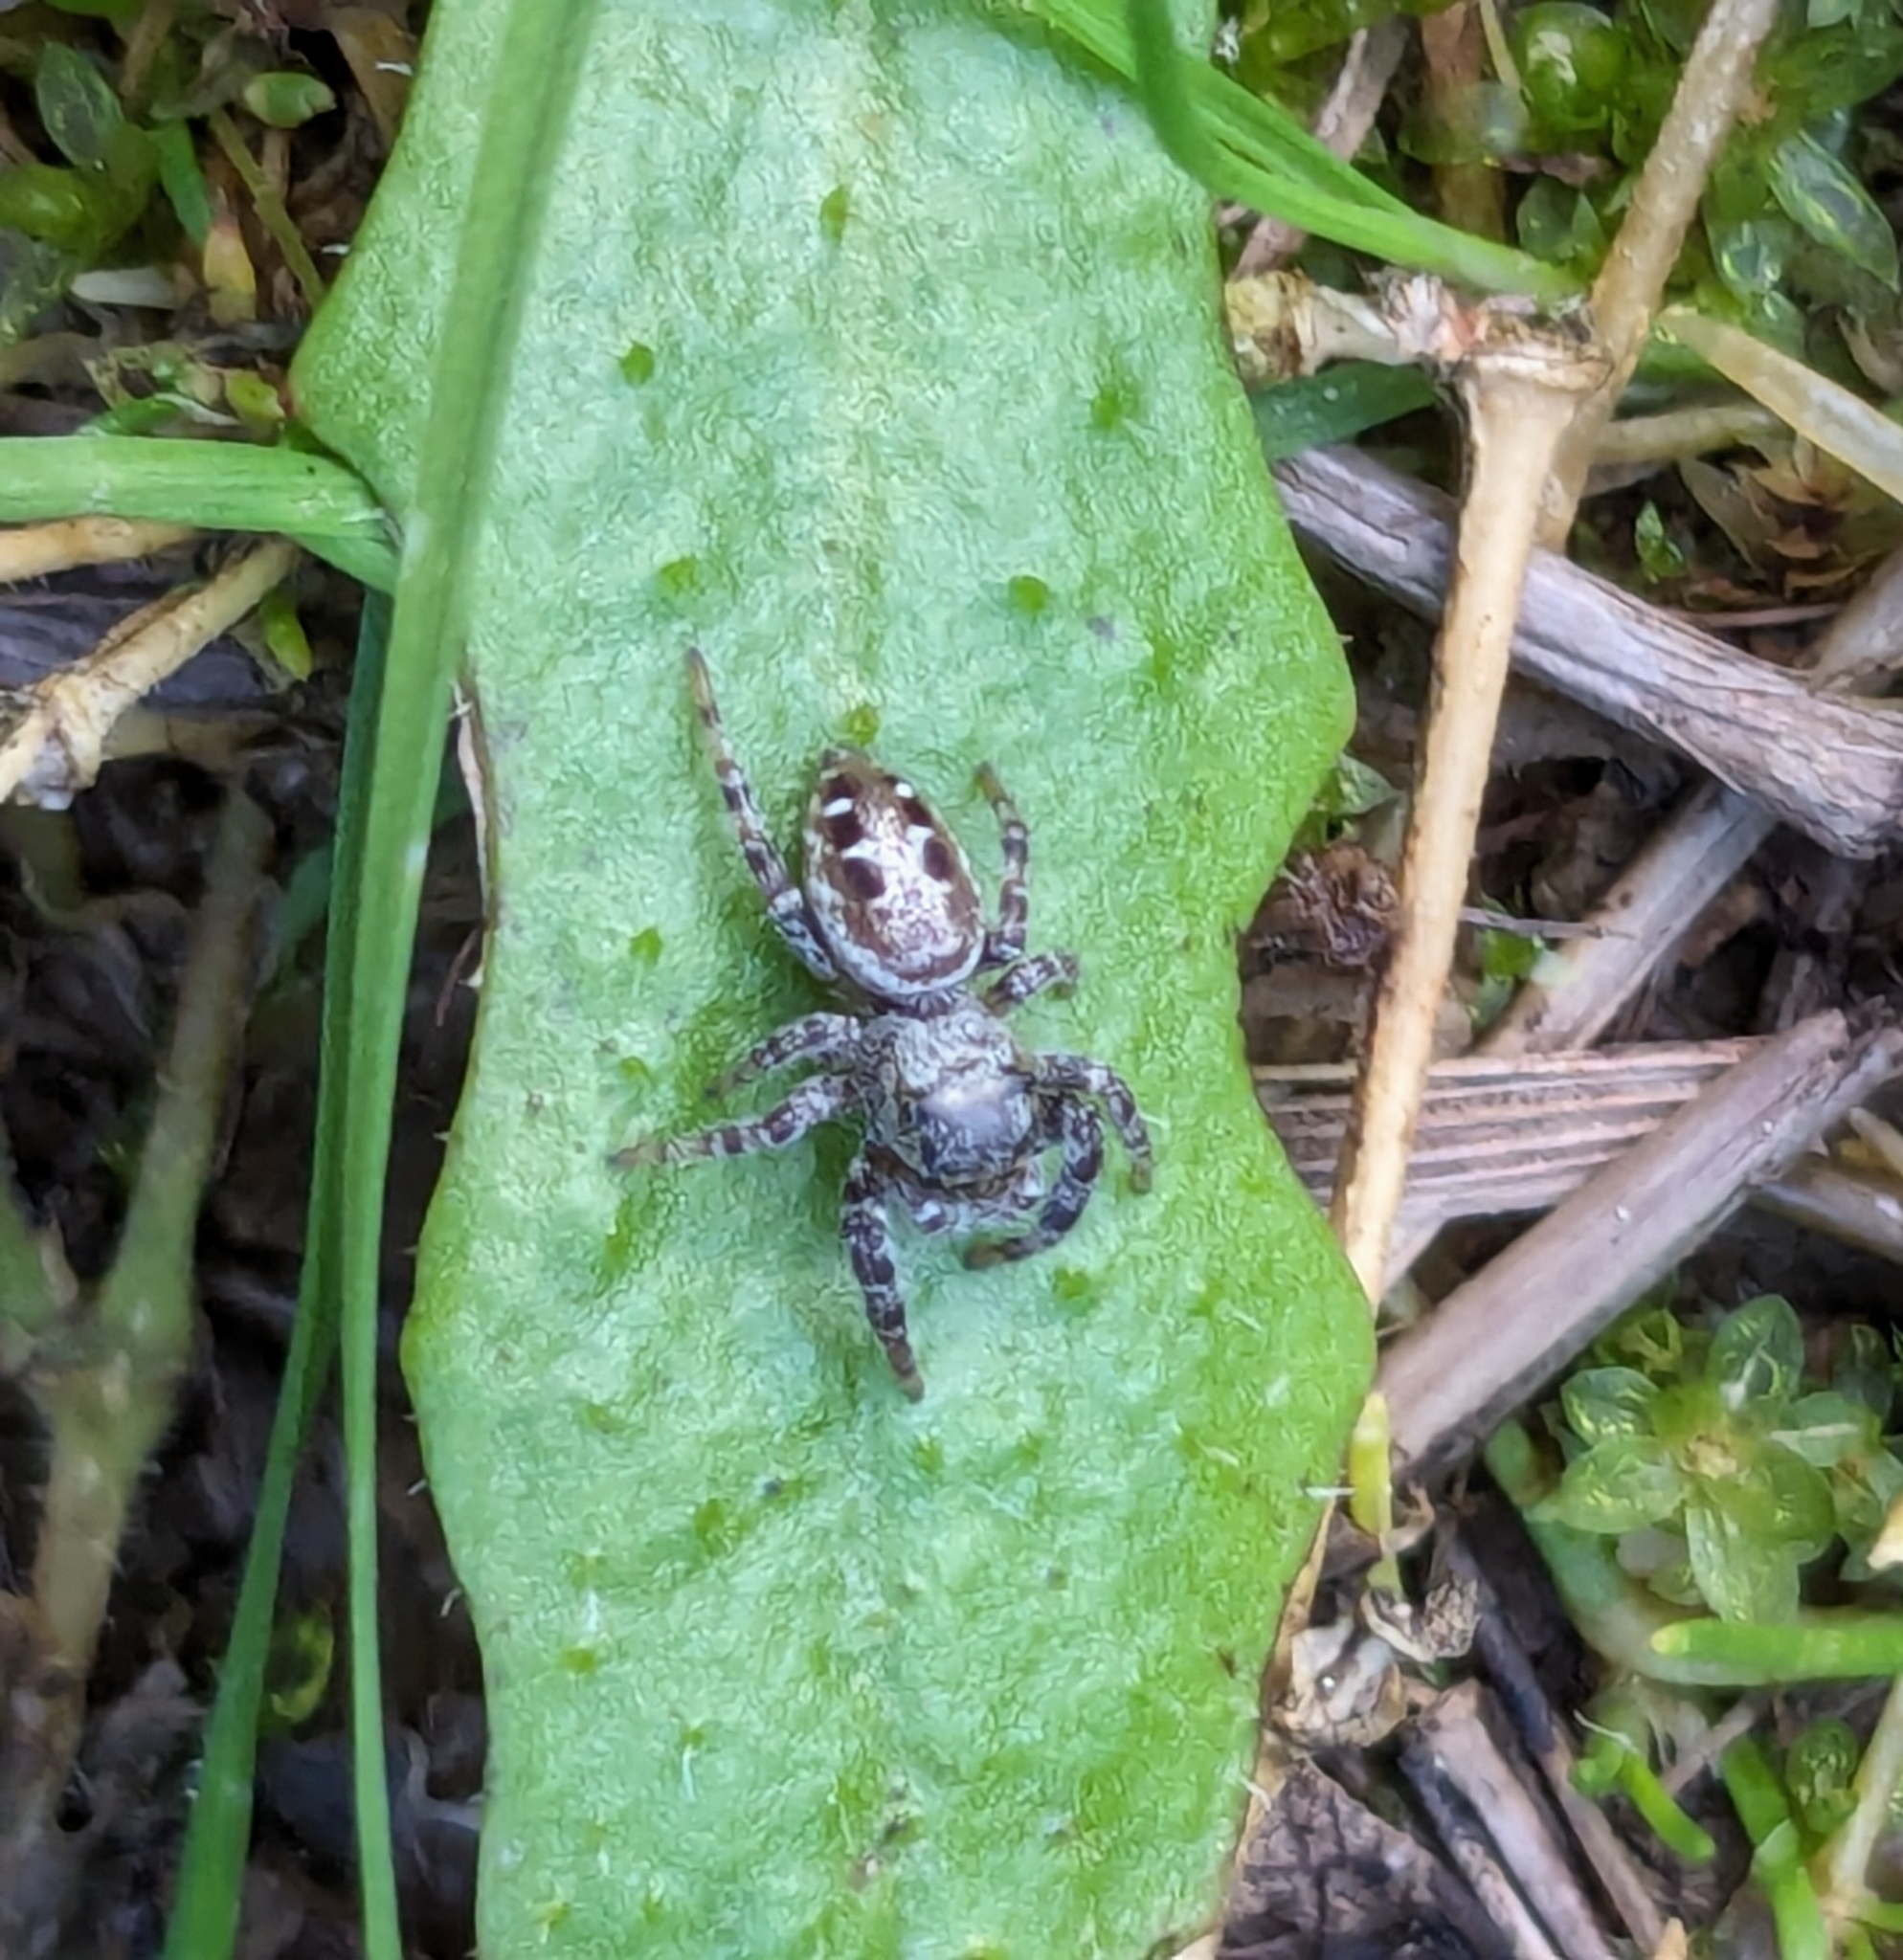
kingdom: Animalia
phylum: Arthropoda
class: Arachnida
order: Araneae
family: Salticidae
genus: Pelegrina
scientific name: Pelegrina aeneola
